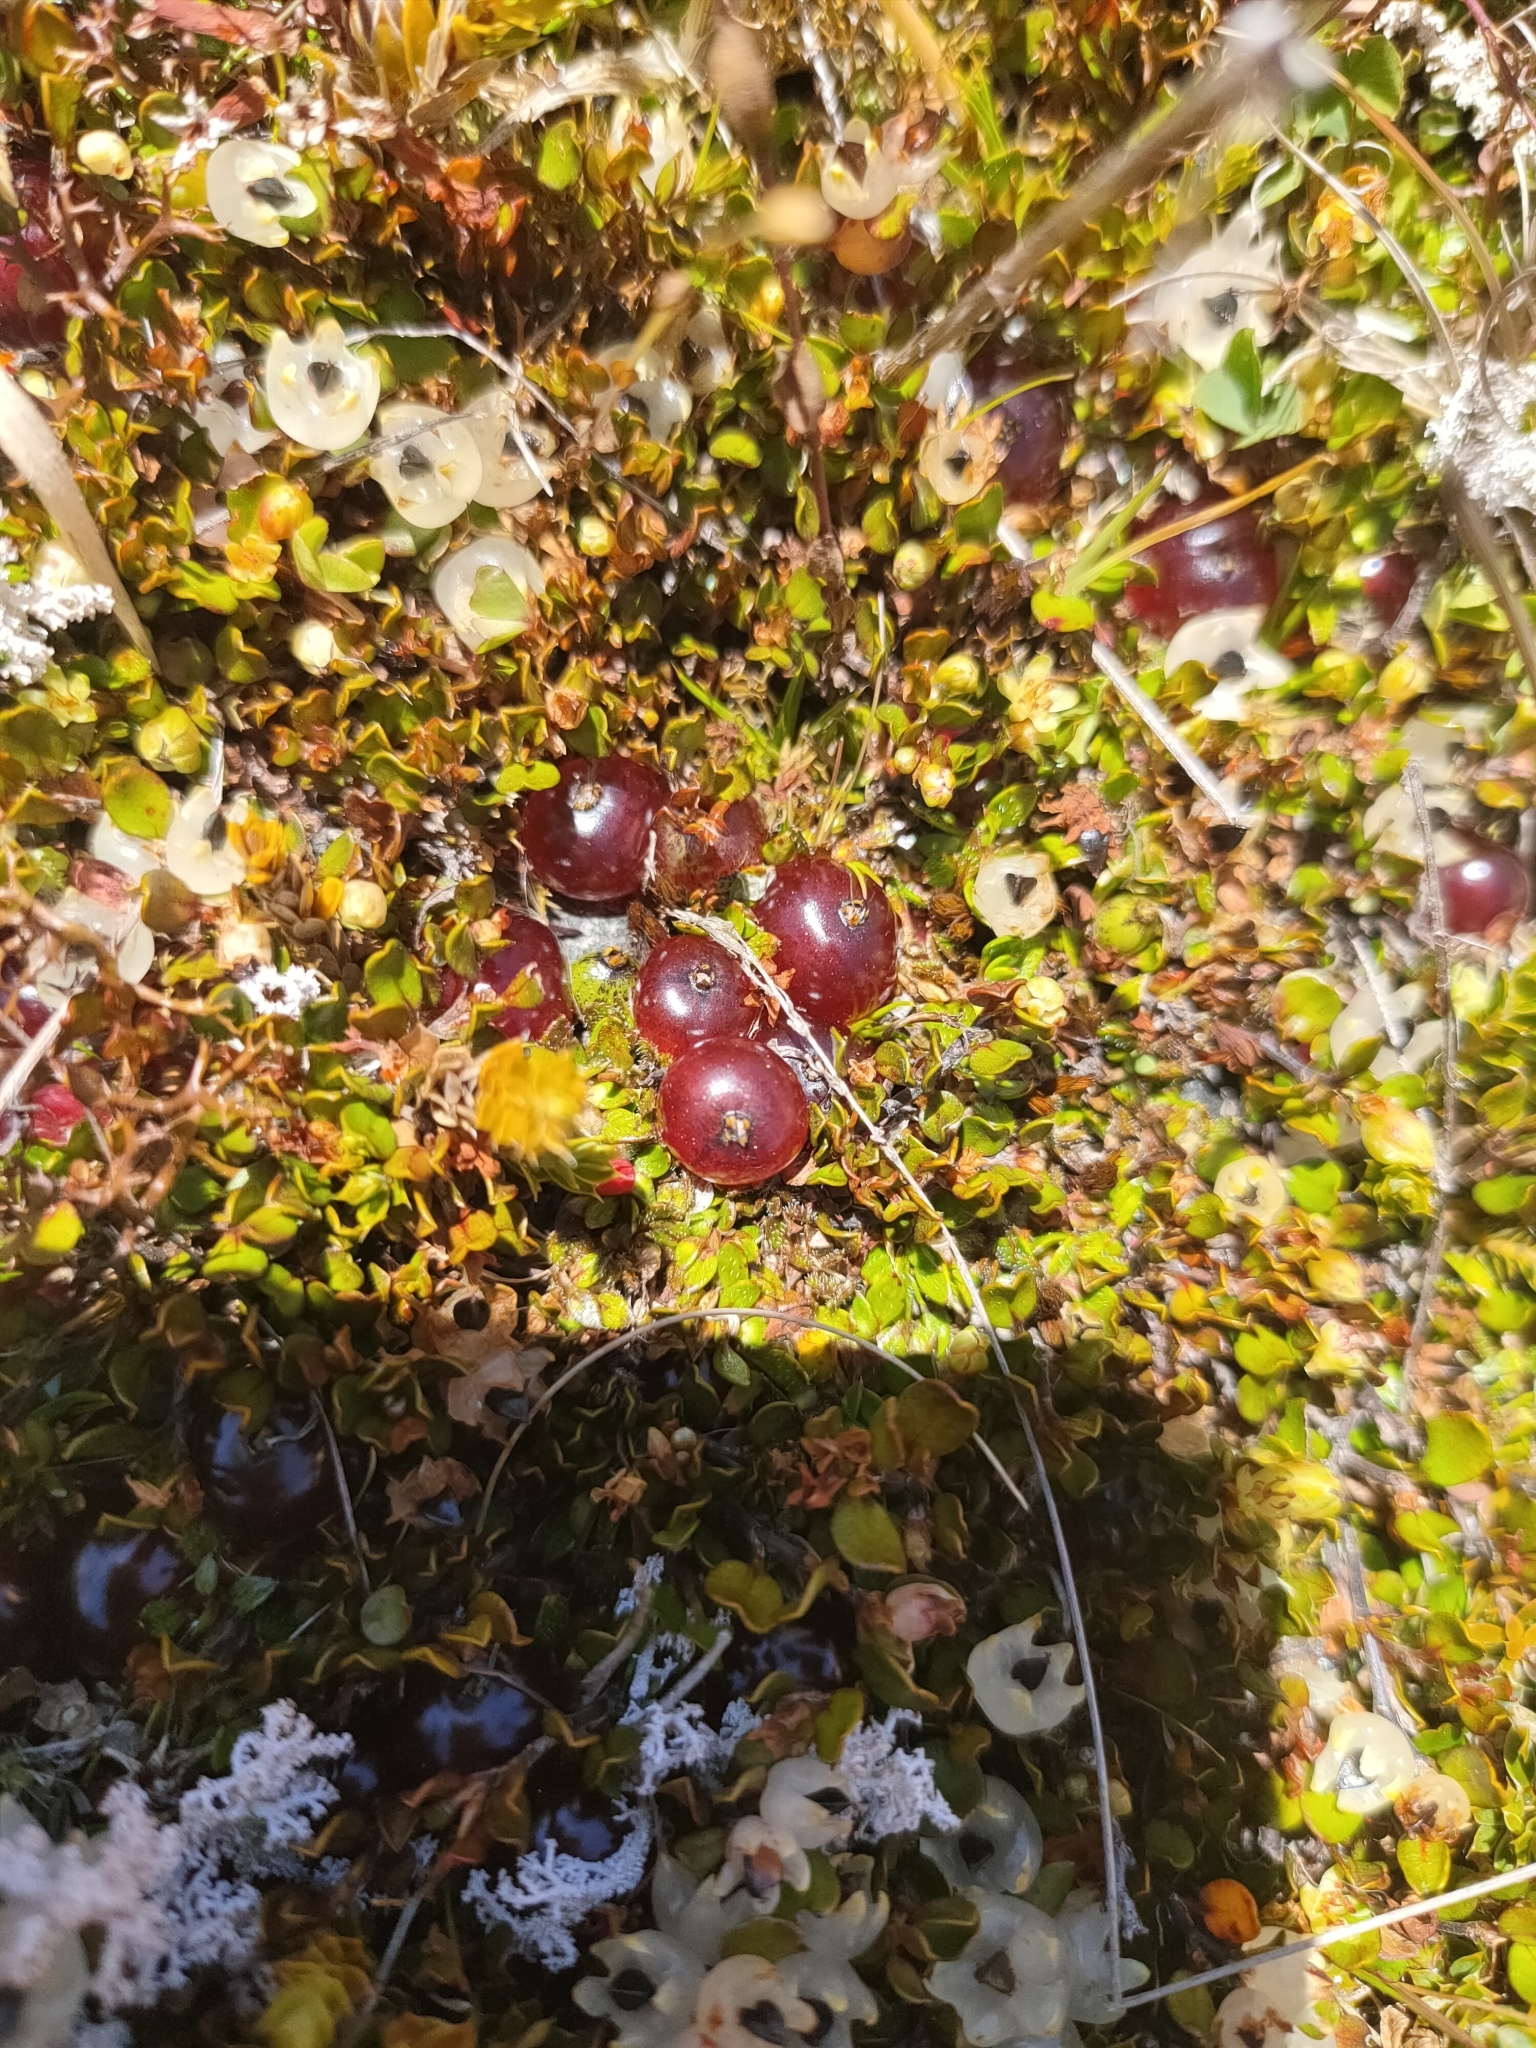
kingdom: Plantae
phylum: Tracheophyta
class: Magnoliopsida
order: Gentianales
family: Rubiaceae
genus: Coprosma
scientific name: Coprosma atropurpurea
